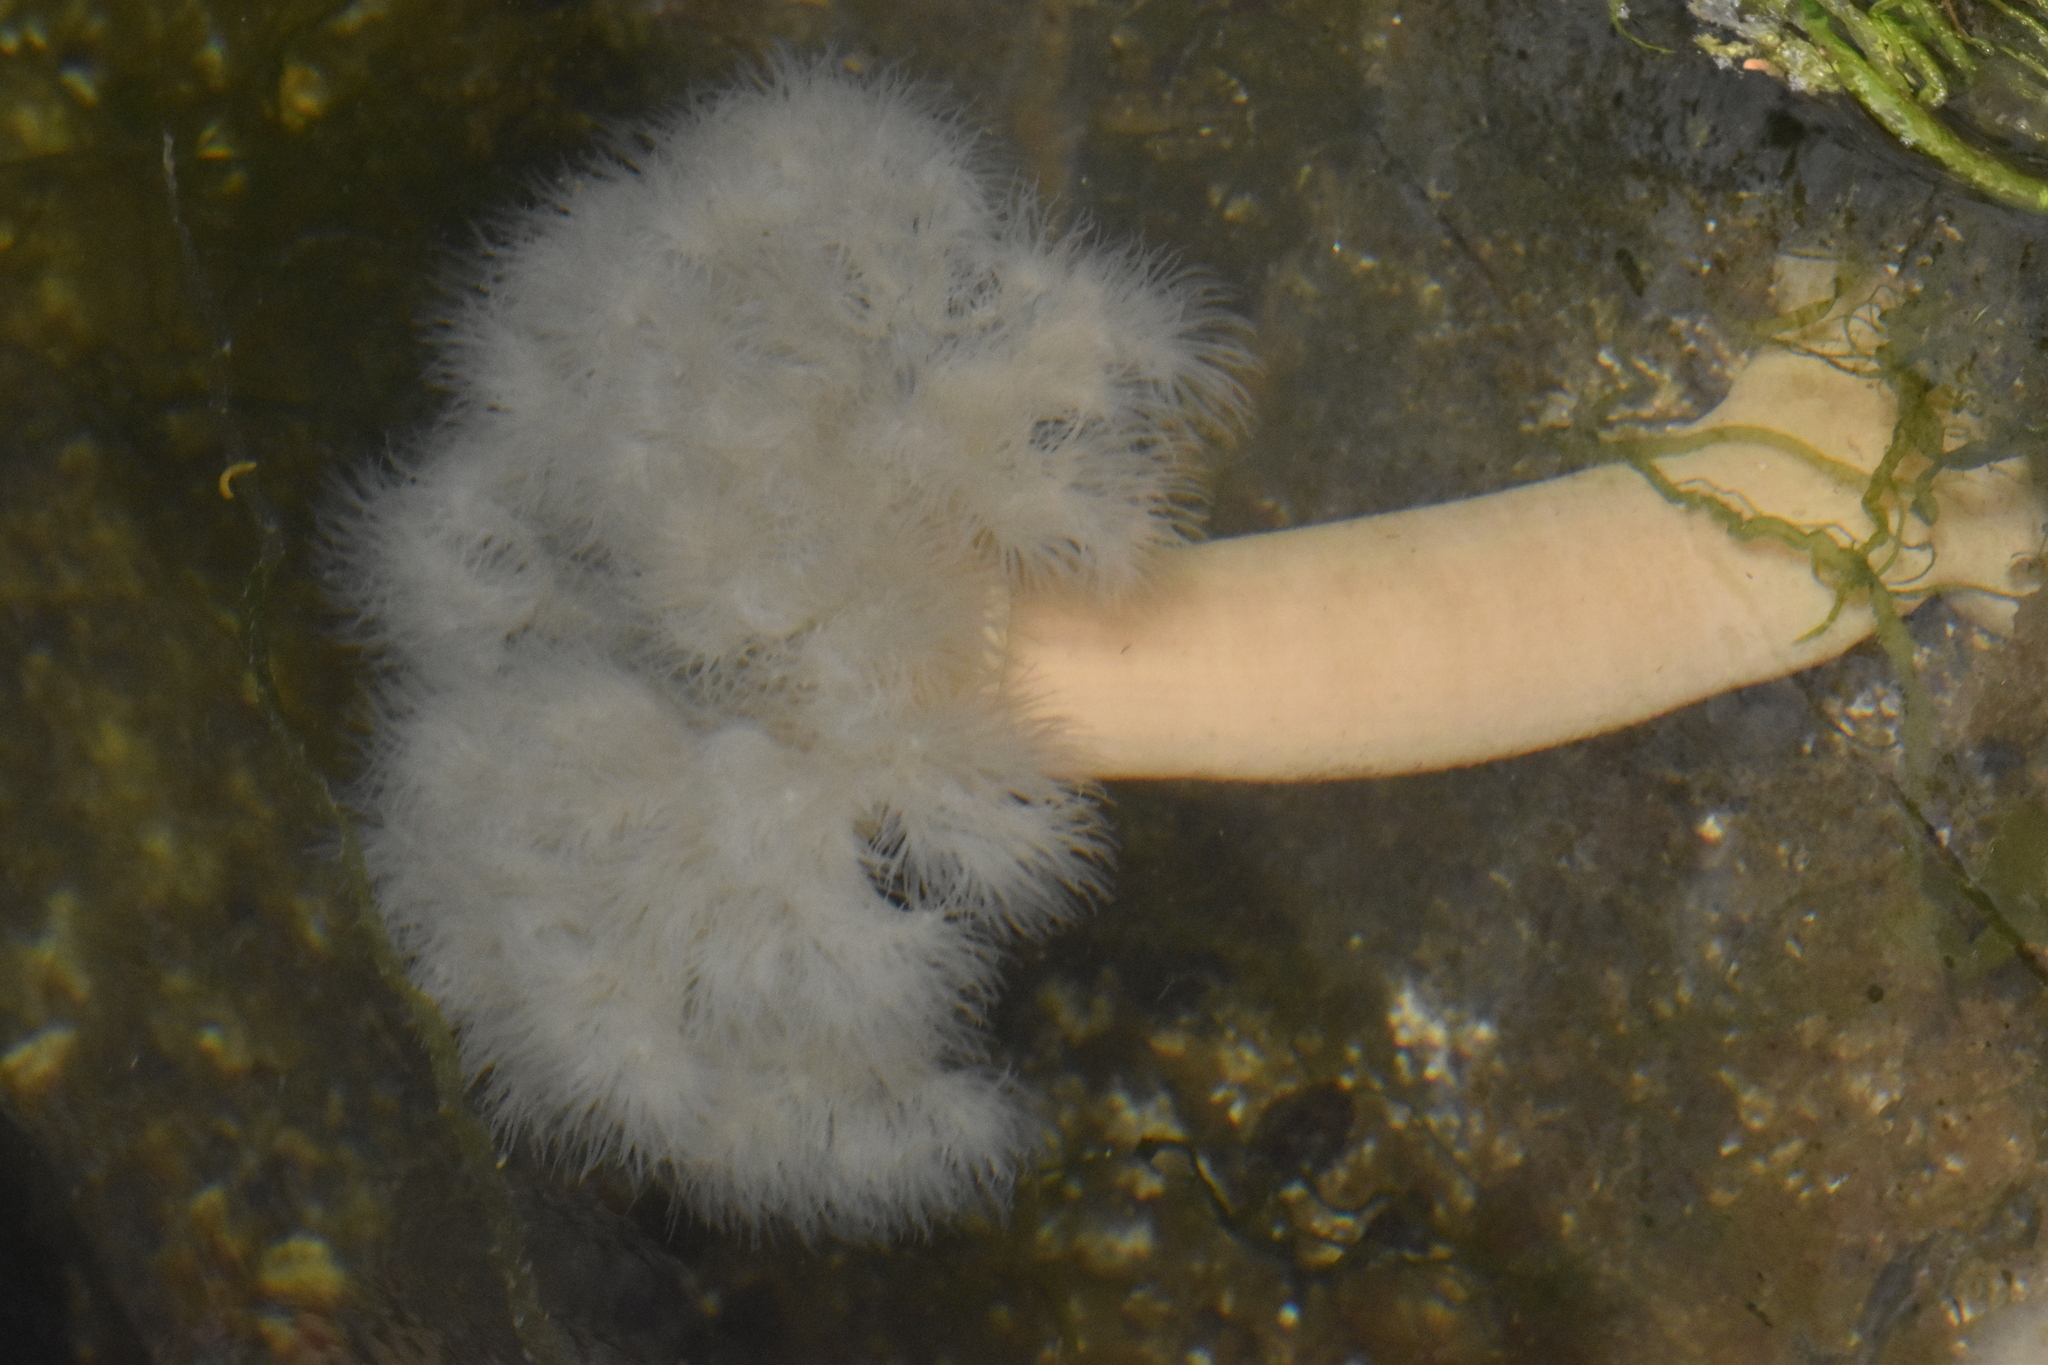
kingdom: Animalia
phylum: Cnidaria
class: Anthozoa
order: Actiniaria
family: Metridiidae
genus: Metridium
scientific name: Metridium farcimen
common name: Gigantic anemone
